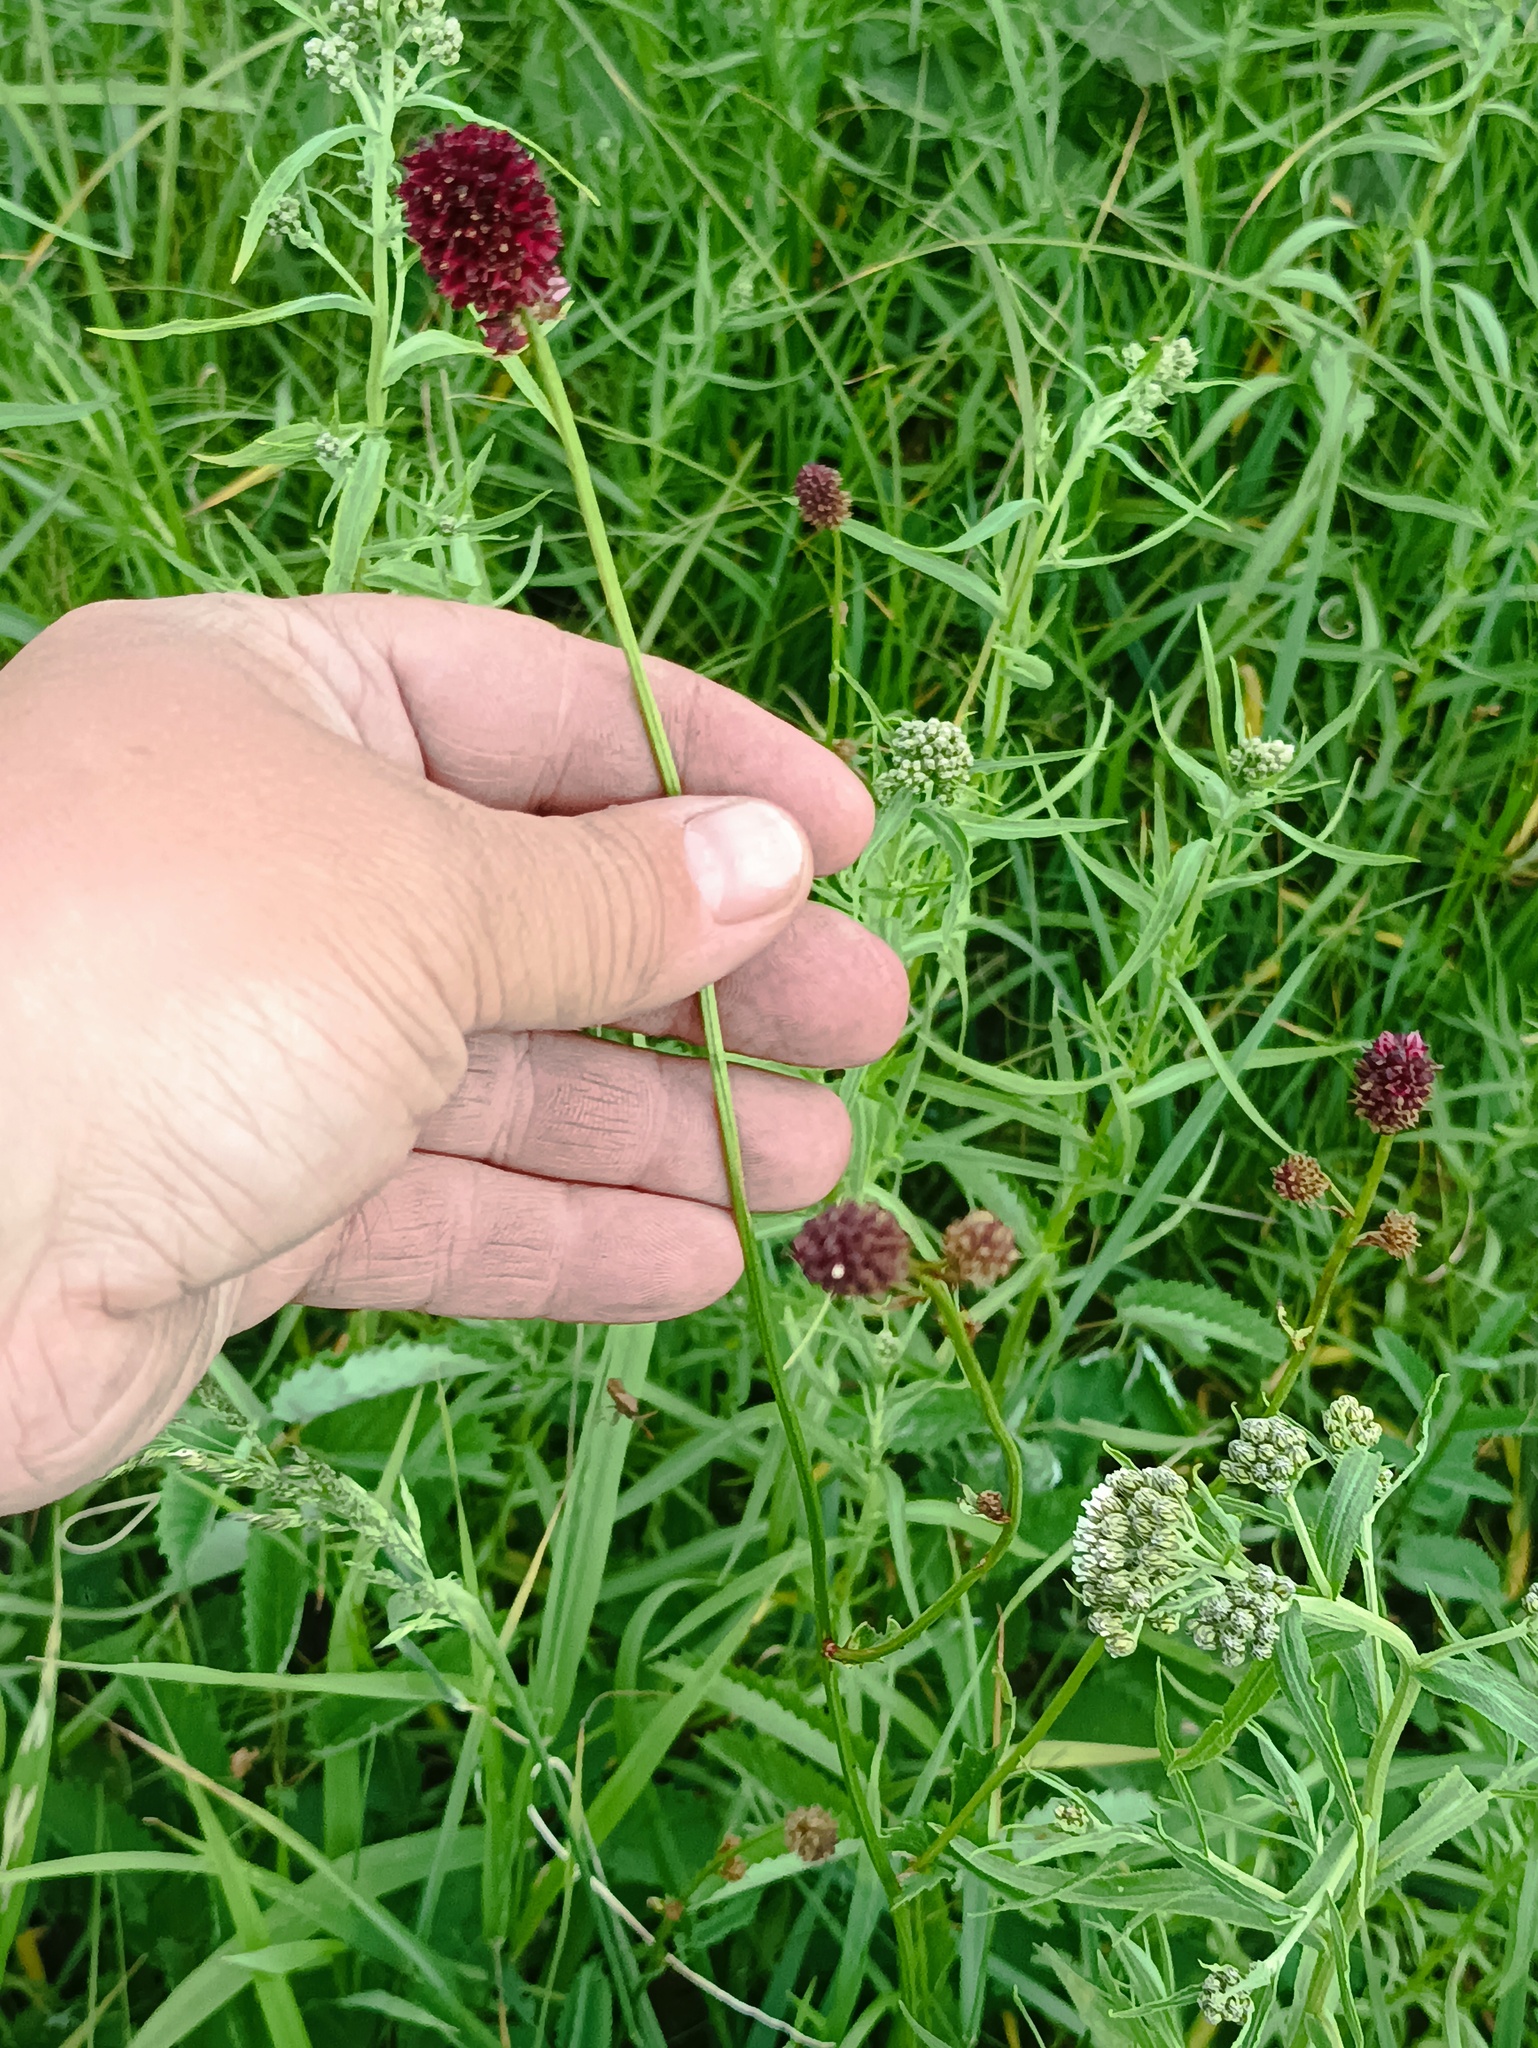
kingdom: Plantae
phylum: Tracheophyta
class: Magnoliopsida
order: Rosales
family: Rosaceae
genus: Sanguisorba
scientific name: Sanguisorba officinalis
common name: Great burnet
